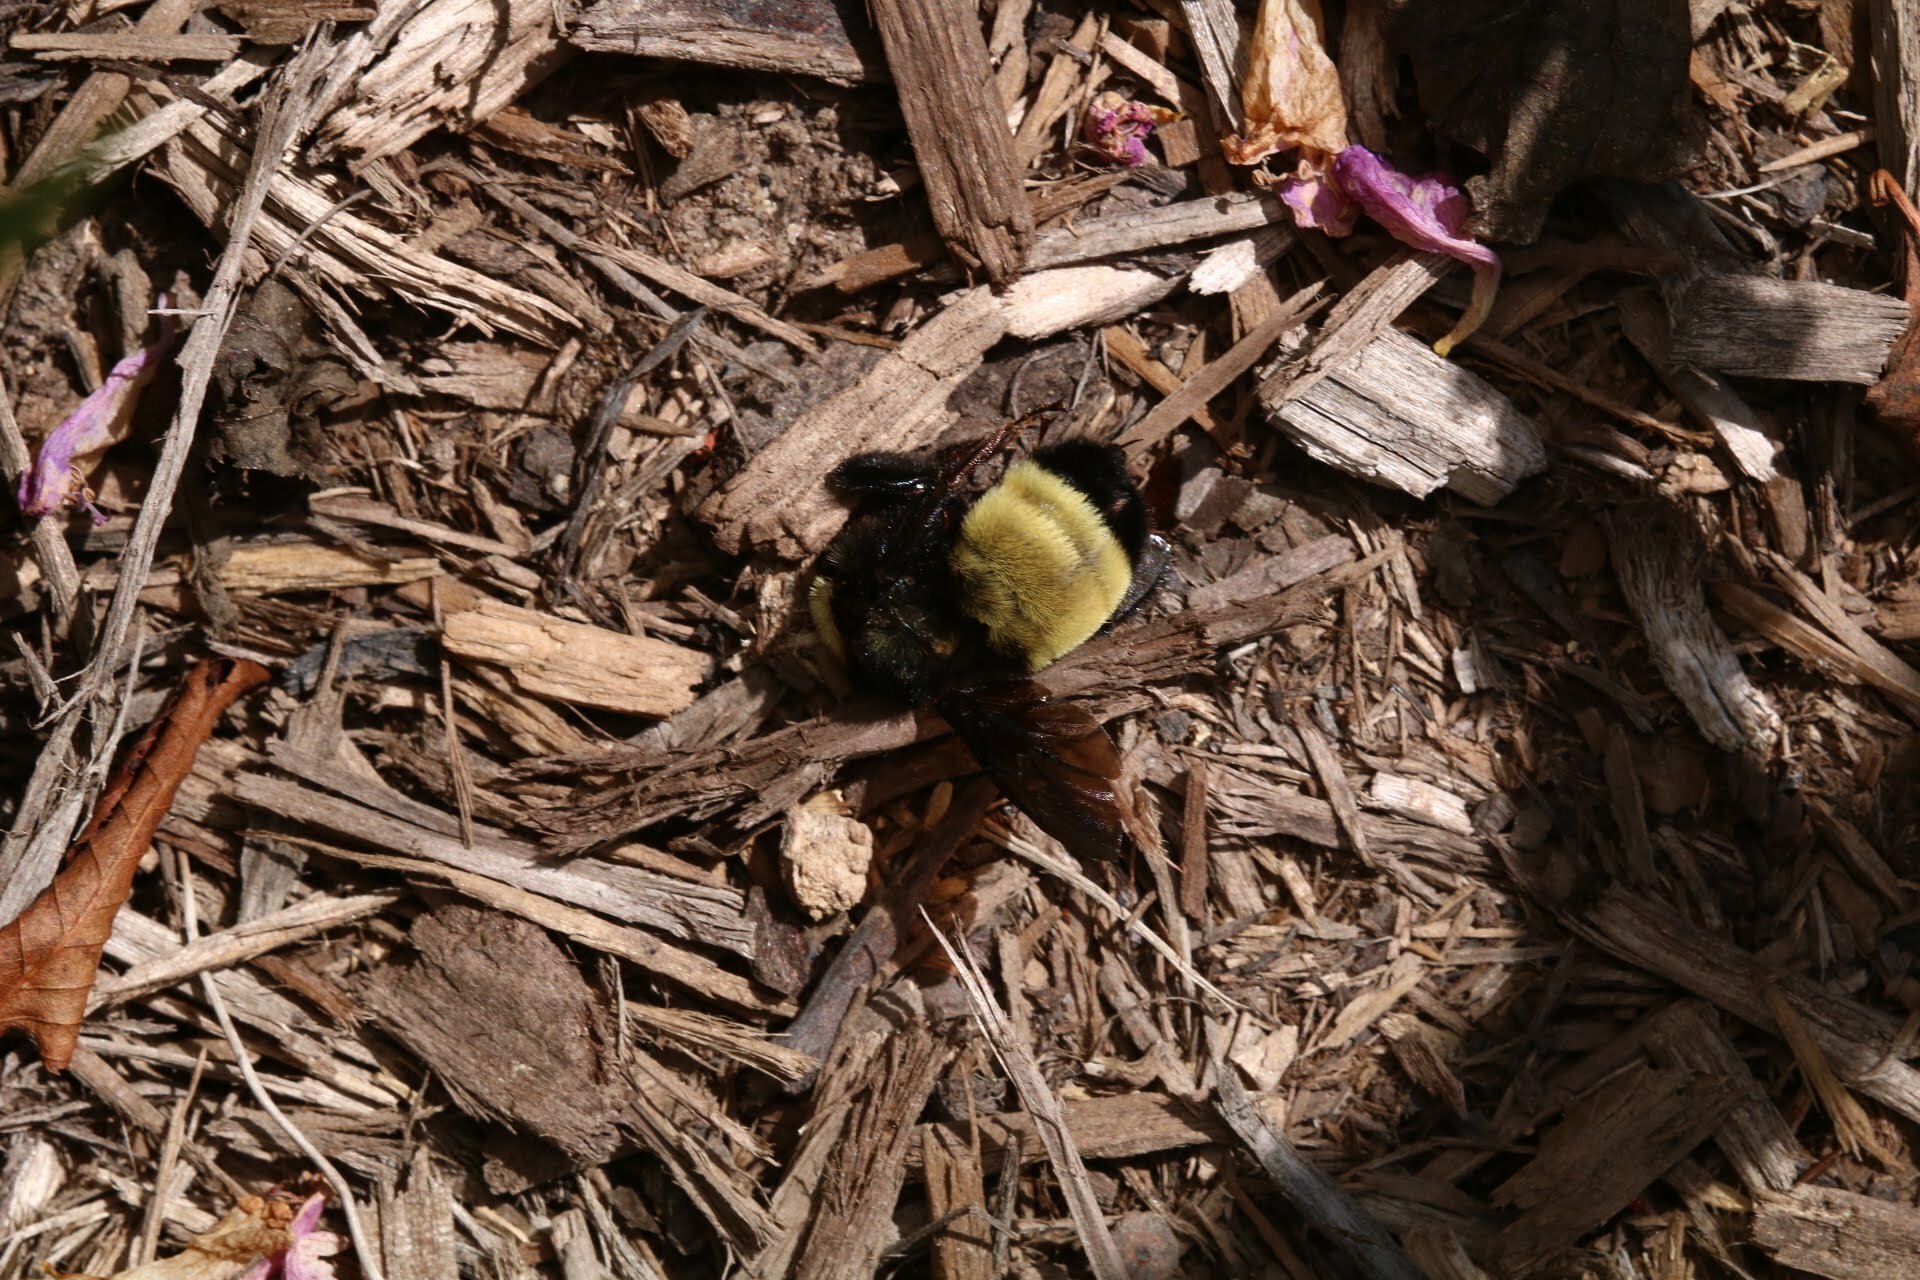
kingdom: Animalia
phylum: Arthropoda
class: Insecta
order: Hymenoptera
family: Apidae
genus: Bombus
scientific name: Bombus pensylvanicus
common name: Bumble bee
